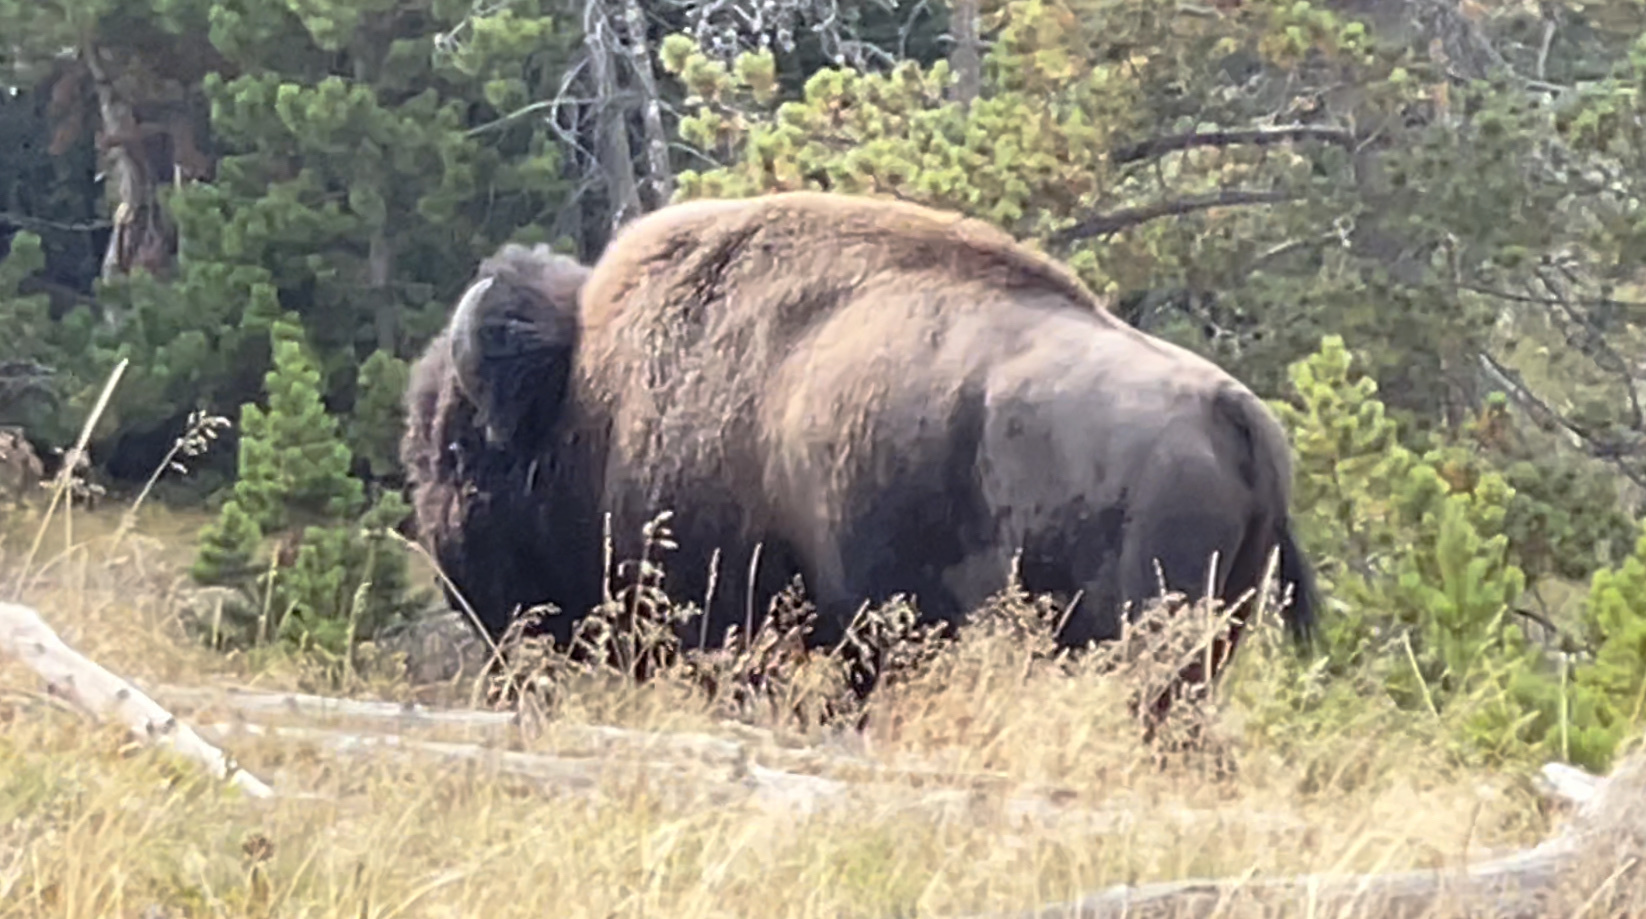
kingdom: Animalia
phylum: Chordata
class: Mammalia
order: Artiodactyla
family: Bovidae
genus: Bison
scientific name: Bison bison
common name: American bison
